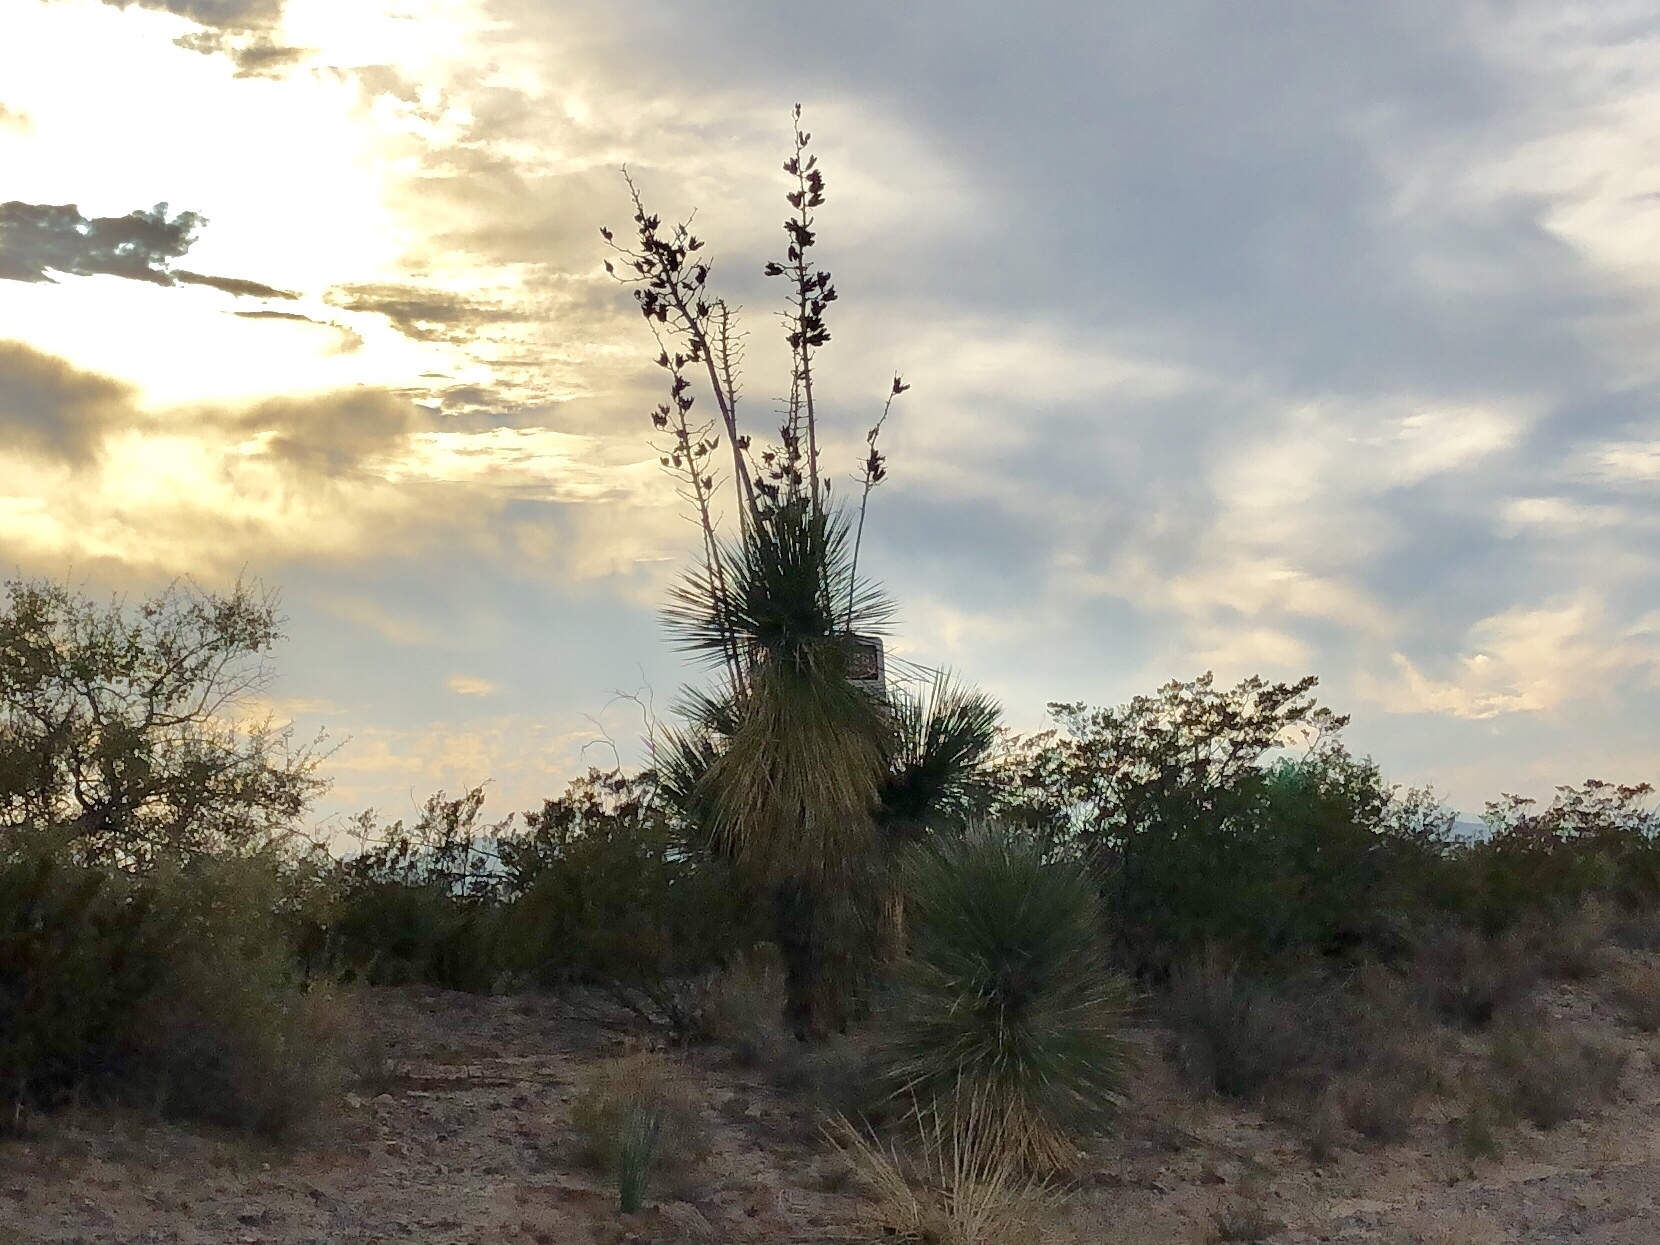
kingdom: Plantae
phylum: Tracheophyta
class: Liliopsida
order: Asparagales
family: Asparagaceae
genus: Yucca
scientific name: Yucca elata
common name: Palmella
